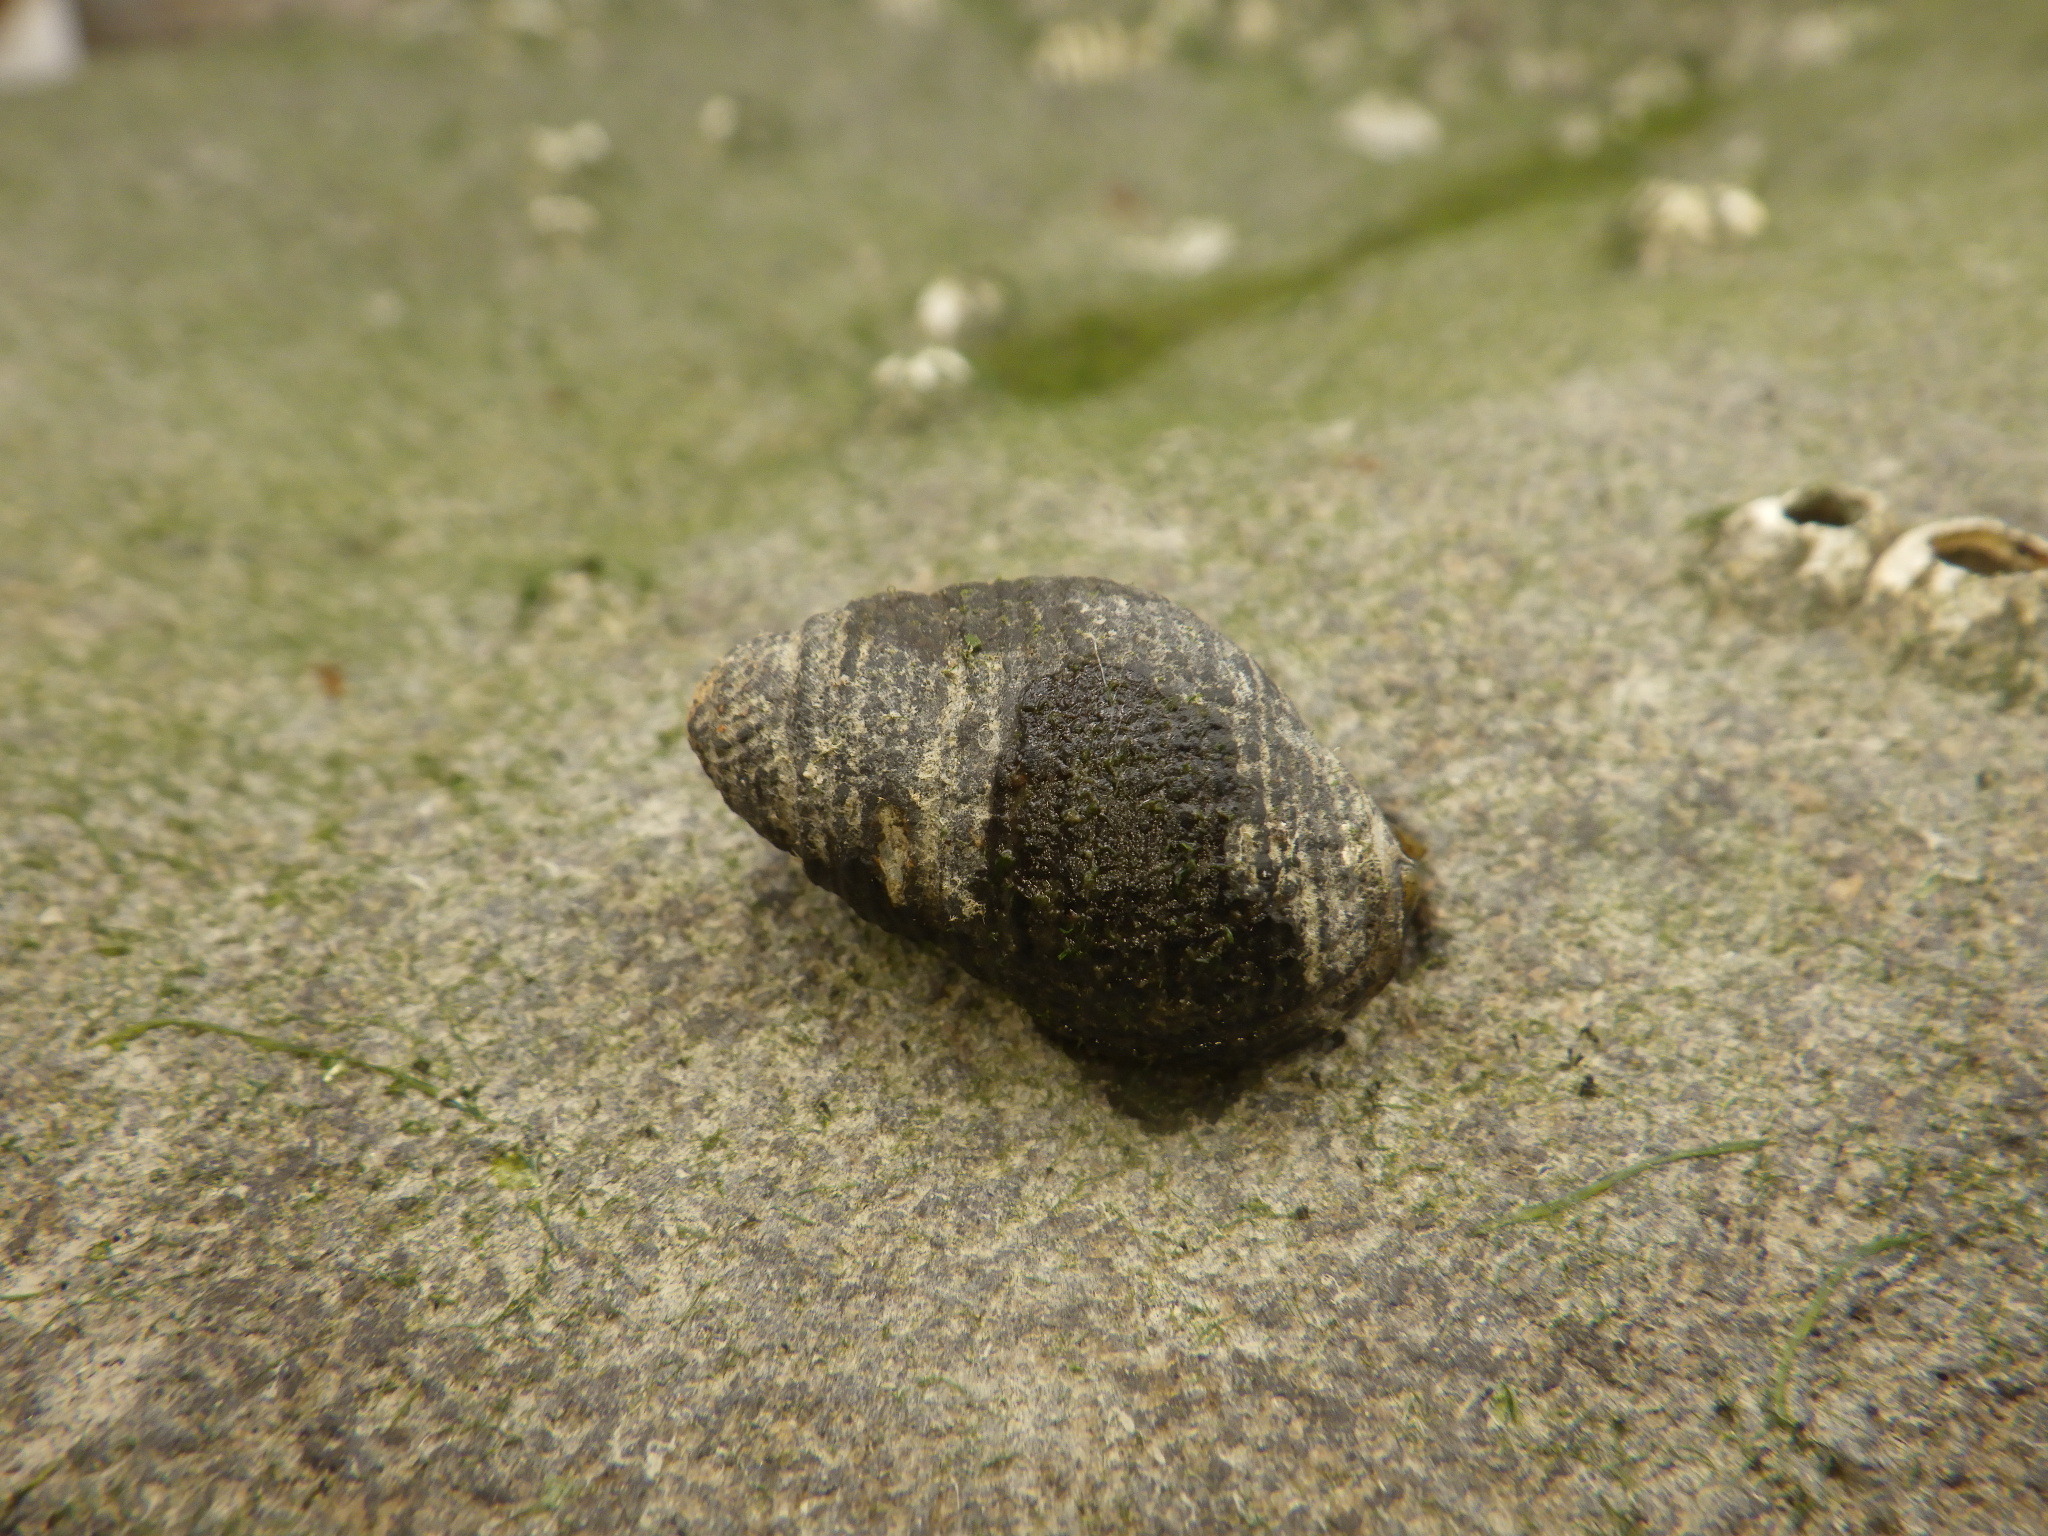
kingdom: Animalia
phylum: Mollusca
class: Gastropoda
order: Neogastropoda
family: Nassariidae
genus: Ilyanassa
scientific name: Ilyanassa obsoleta
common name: Eastern mudsnail
